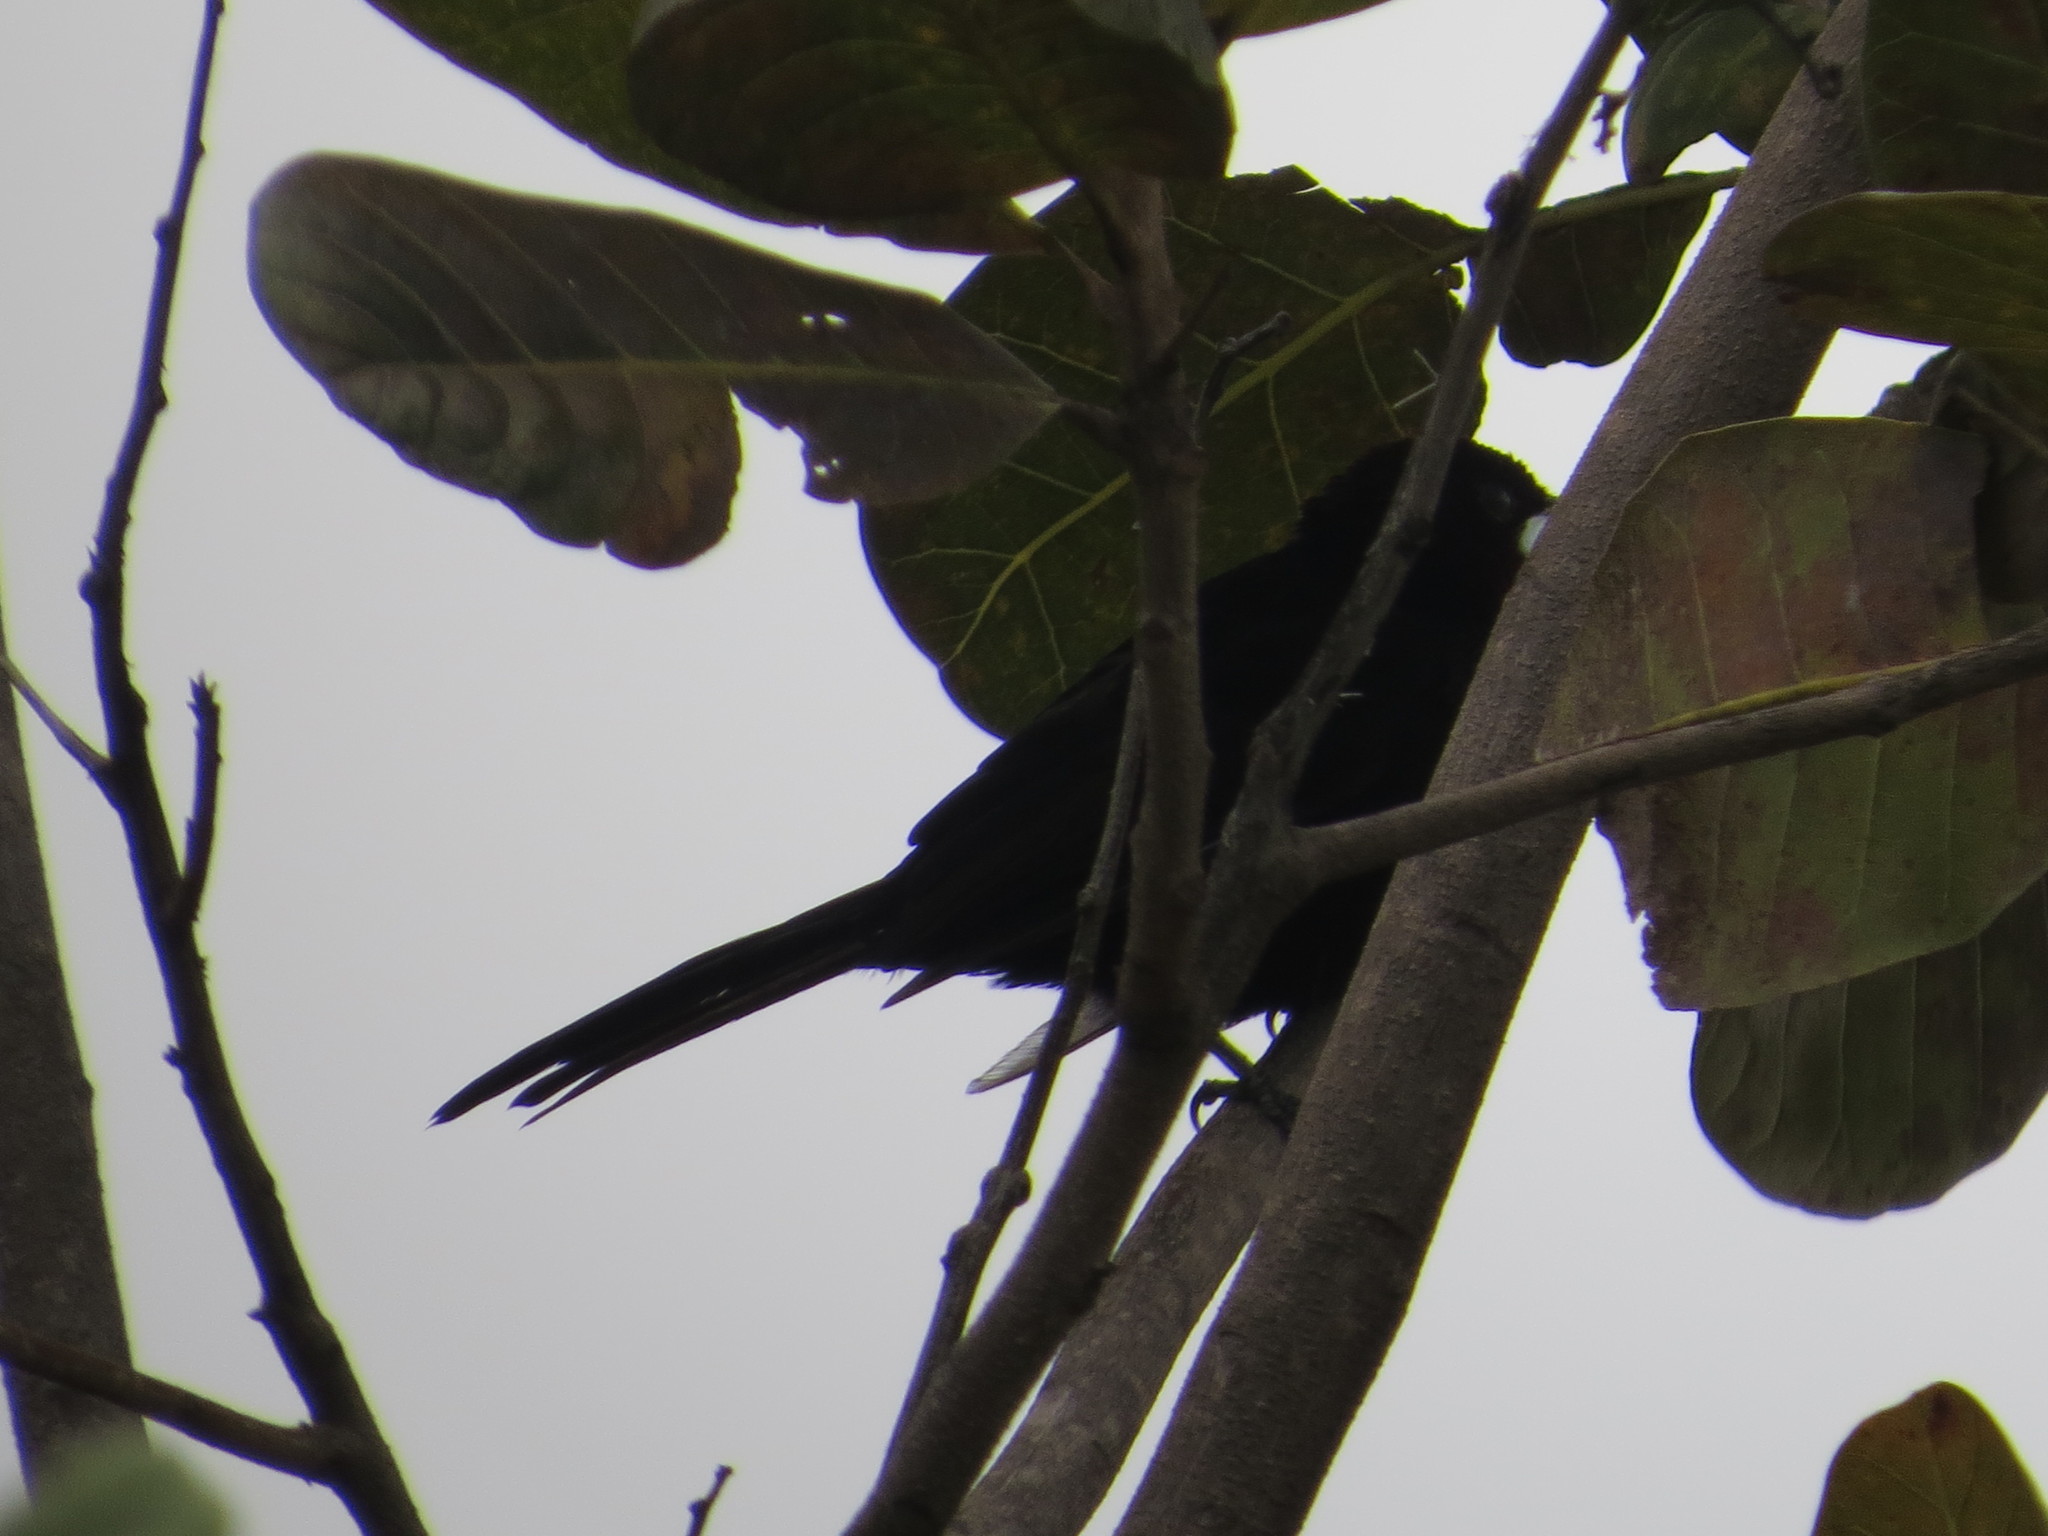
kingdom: Animalia
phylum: Chordata
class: Aves
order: Passeriformes
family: Thraupidae
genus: Ramphocelus
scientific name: Ramphocelus carbo
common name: Silver-beaked tanager
